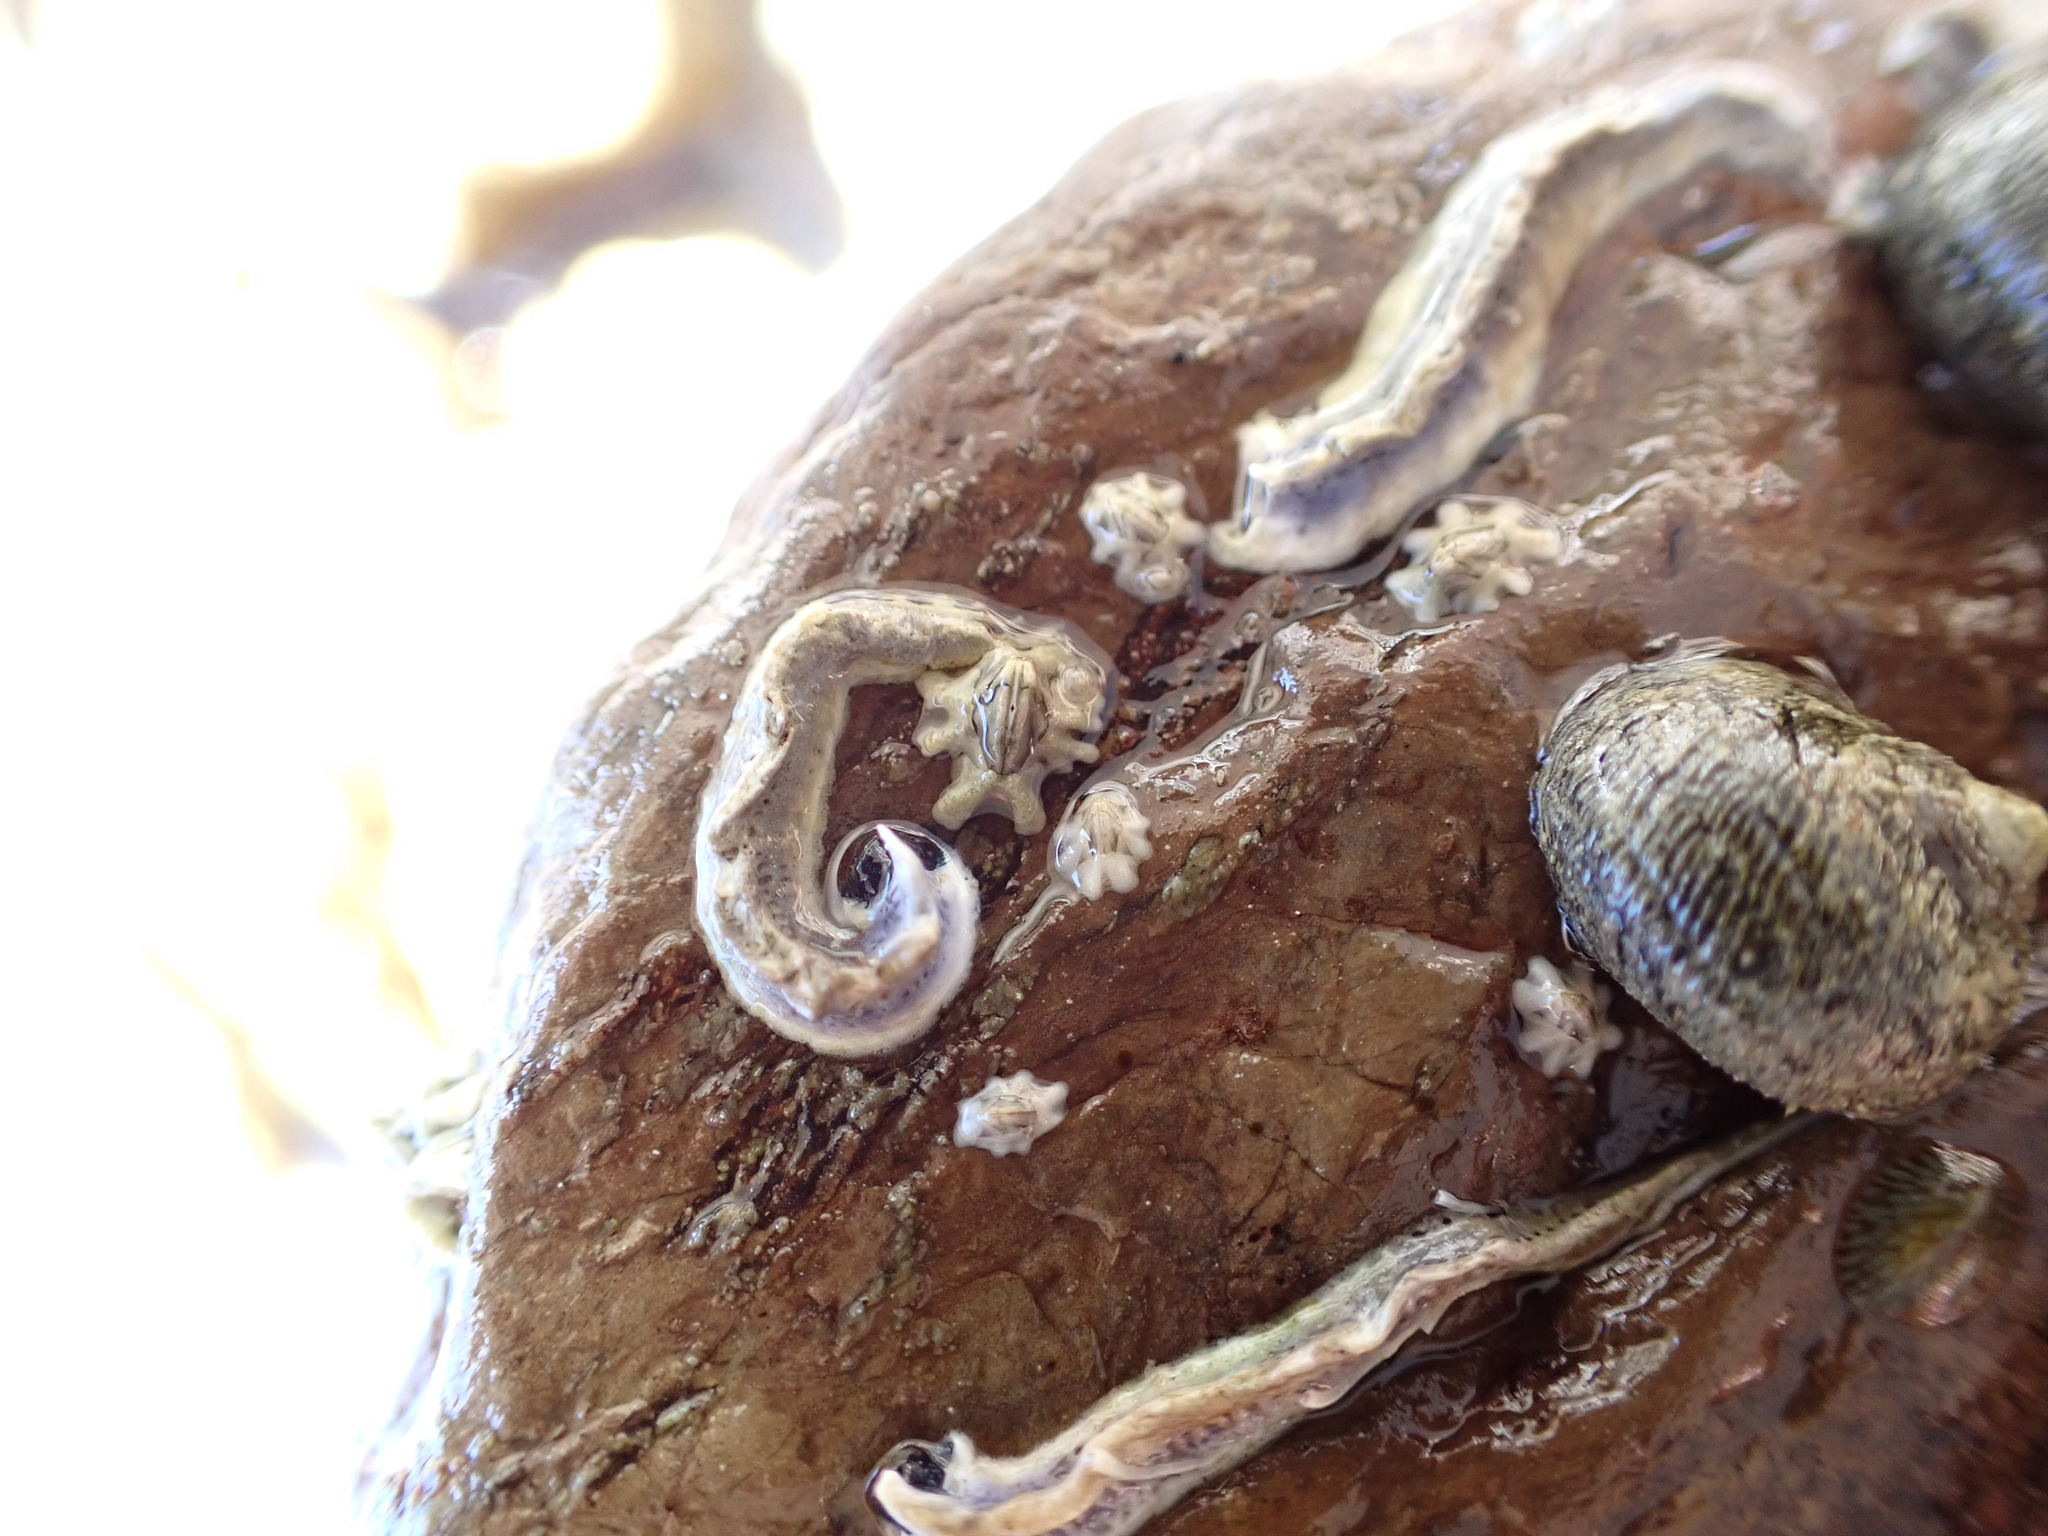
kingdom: Animalia
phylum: Annelida
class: Polychaeta
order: Sabellida
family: Serpulidae
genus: Spirobranchus
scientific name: Spirobranchus cariniferus
